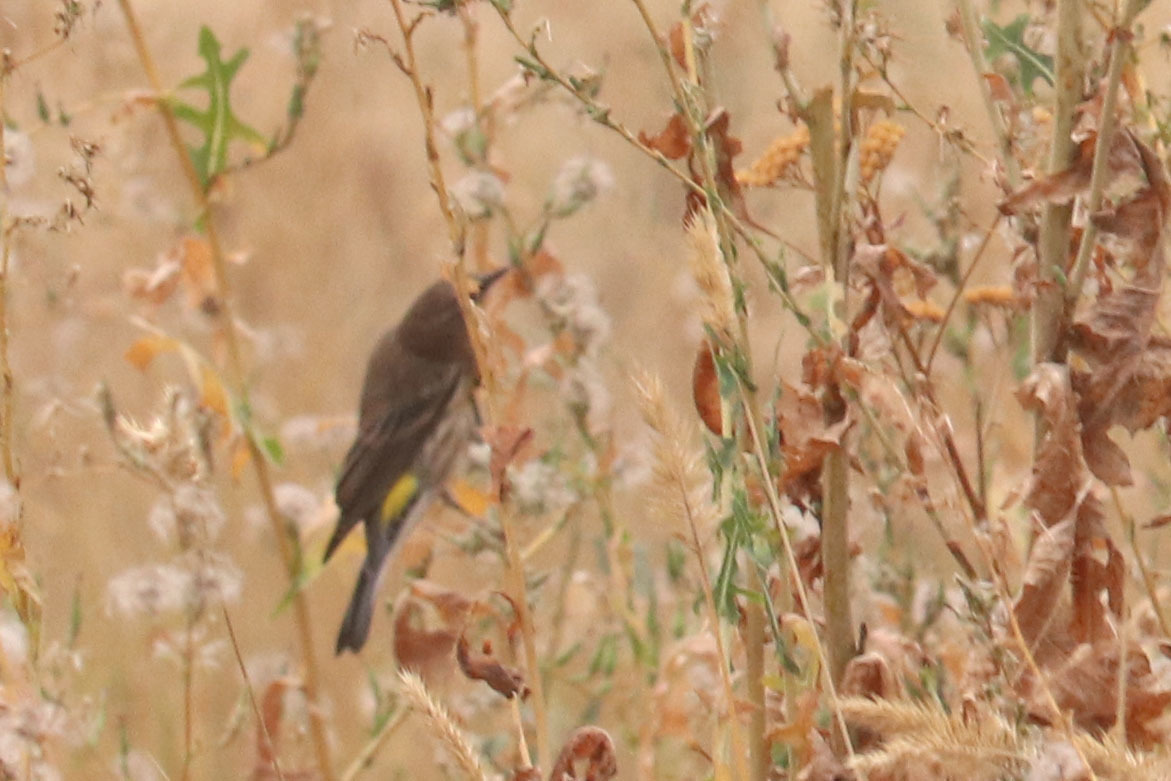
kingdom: Animalia
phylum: Chordata
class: Aves
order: Passeriformes
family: Parulidae
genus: Setophaga
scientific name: Setophaga coronata
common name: Myrtle warbler
